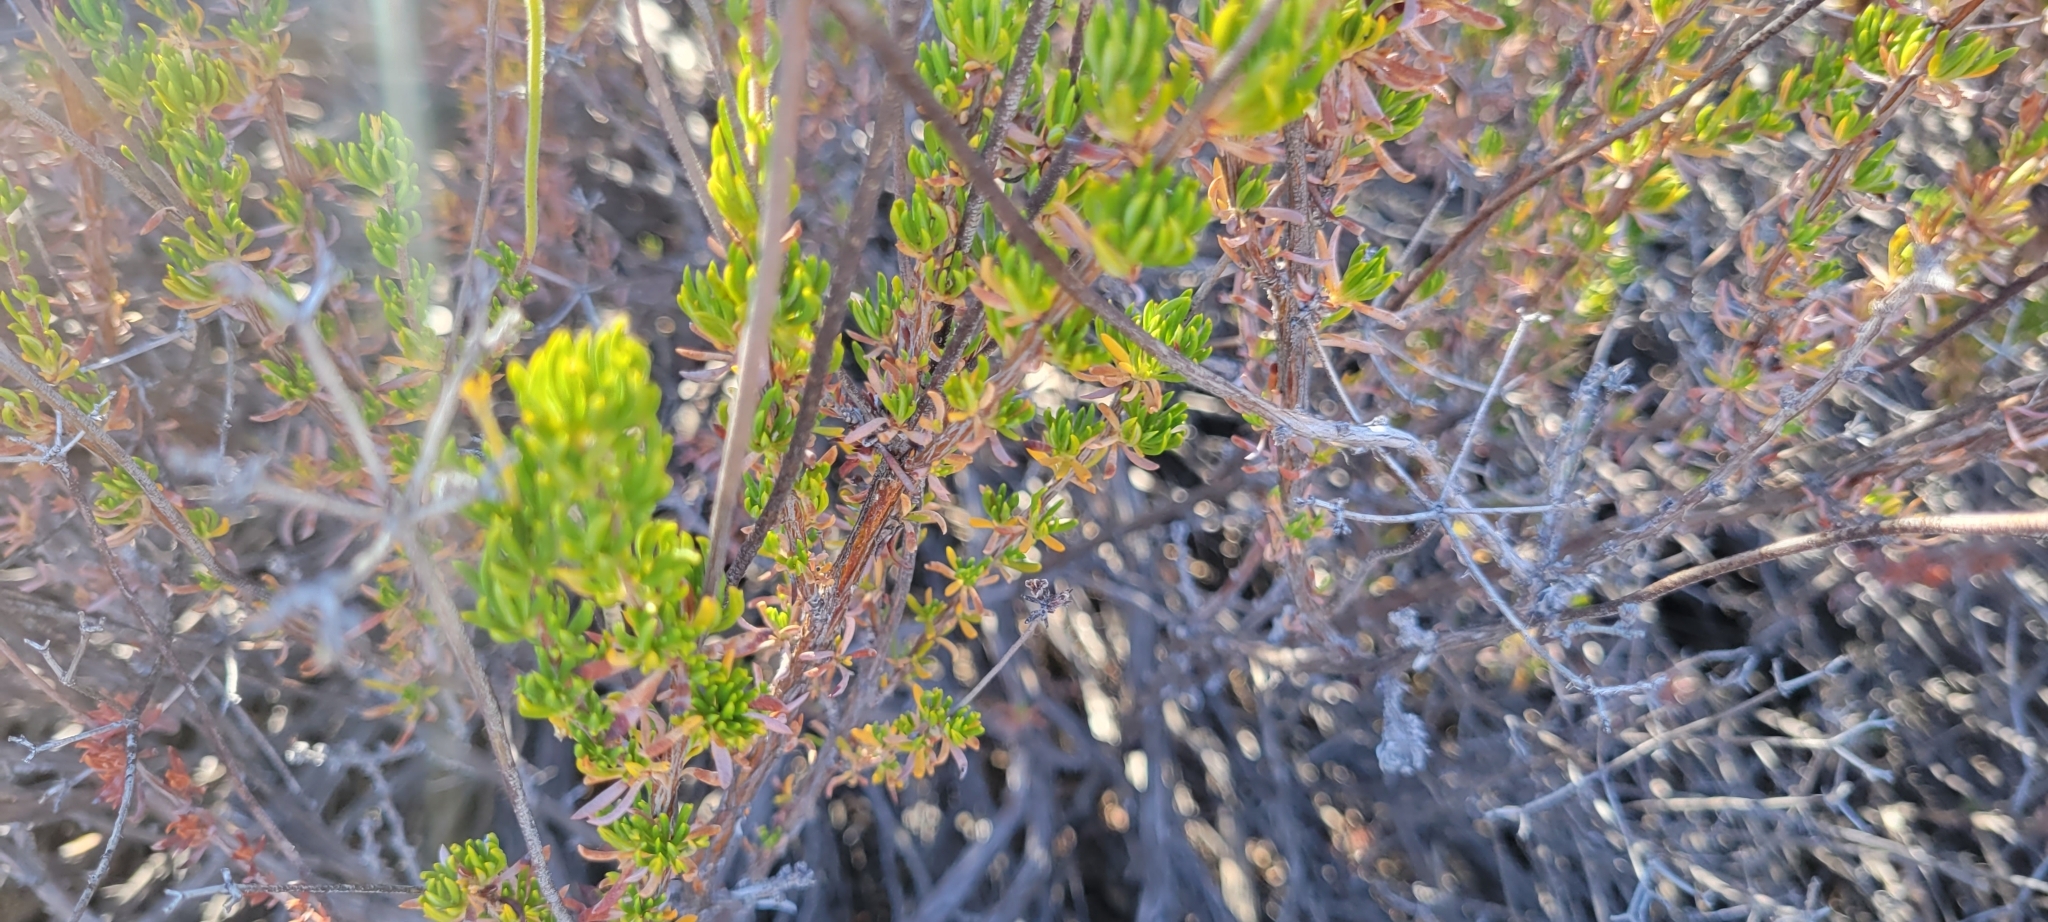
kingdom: Plantae
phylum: Tracheophyta
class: Magnoliopsida
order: Caryophyllales
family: Polygonaceae
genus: Eriogonum
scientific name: Eriogonum fasciculatum
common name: California wild buckwheat
